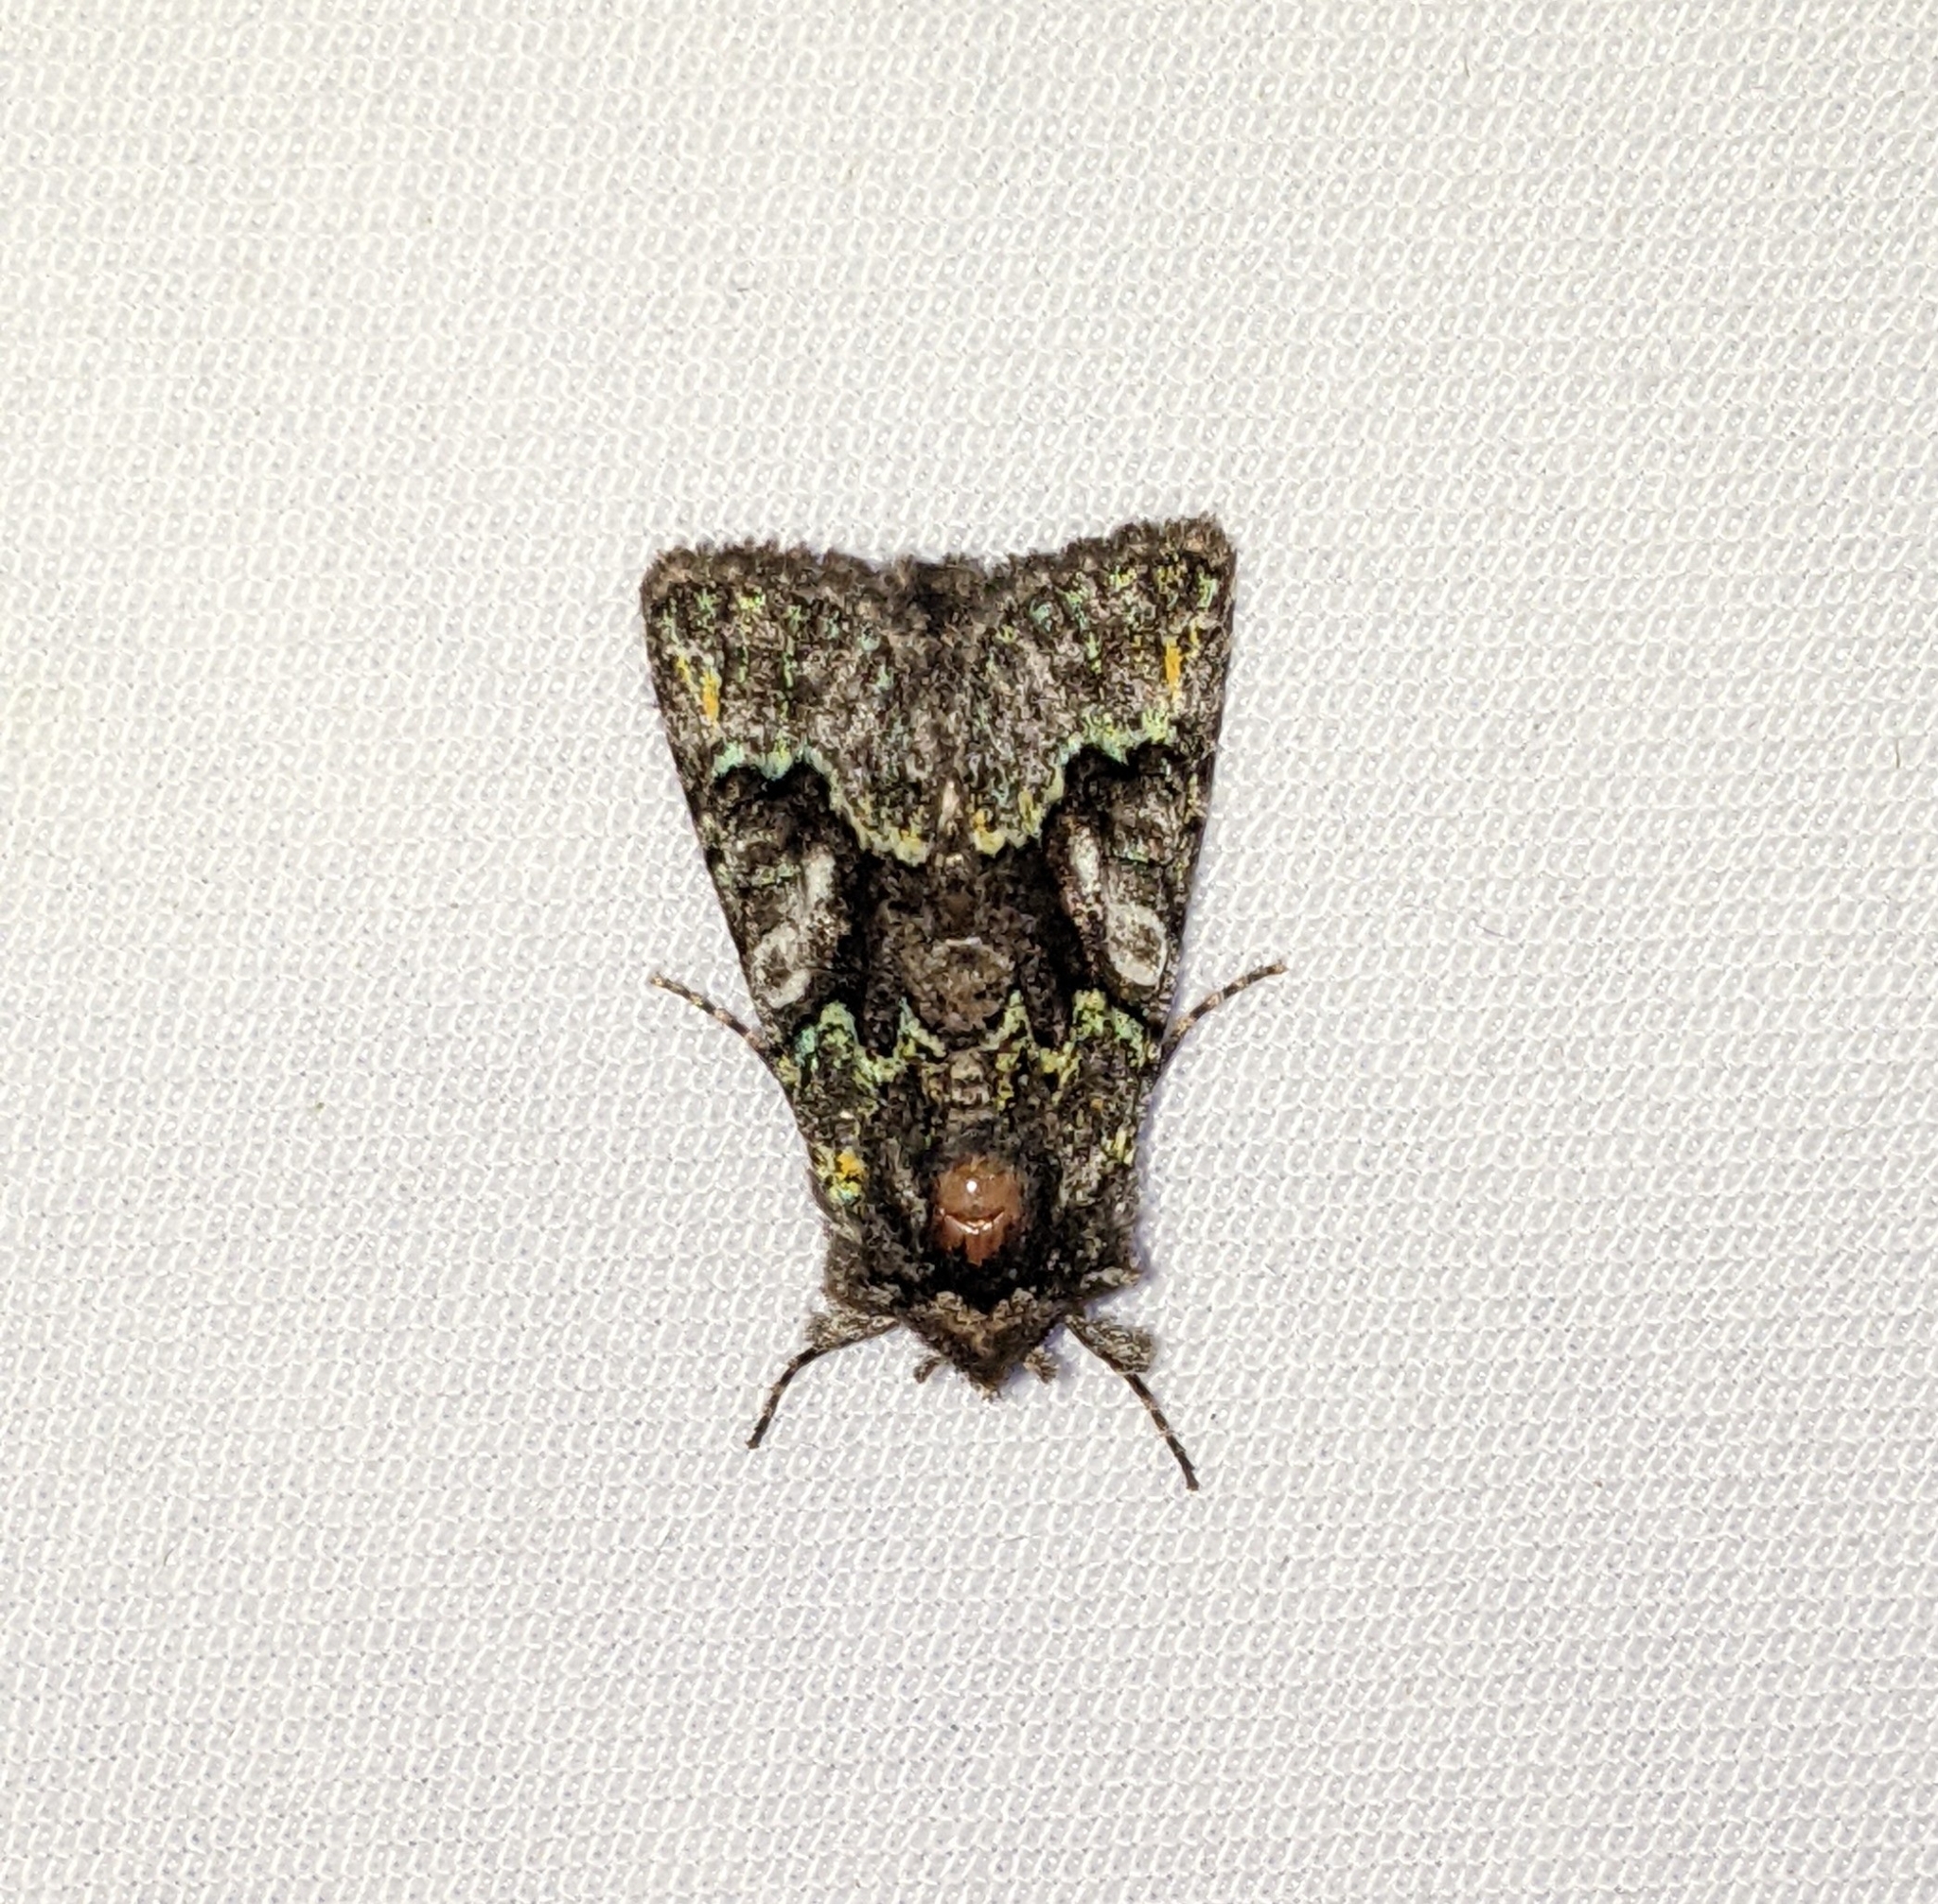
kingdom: Animalia
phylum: Arthropoda
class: Insecta
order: Lepidoptera
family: Noctuidae
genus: Behrensia
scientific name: Behrensia conchiformis
